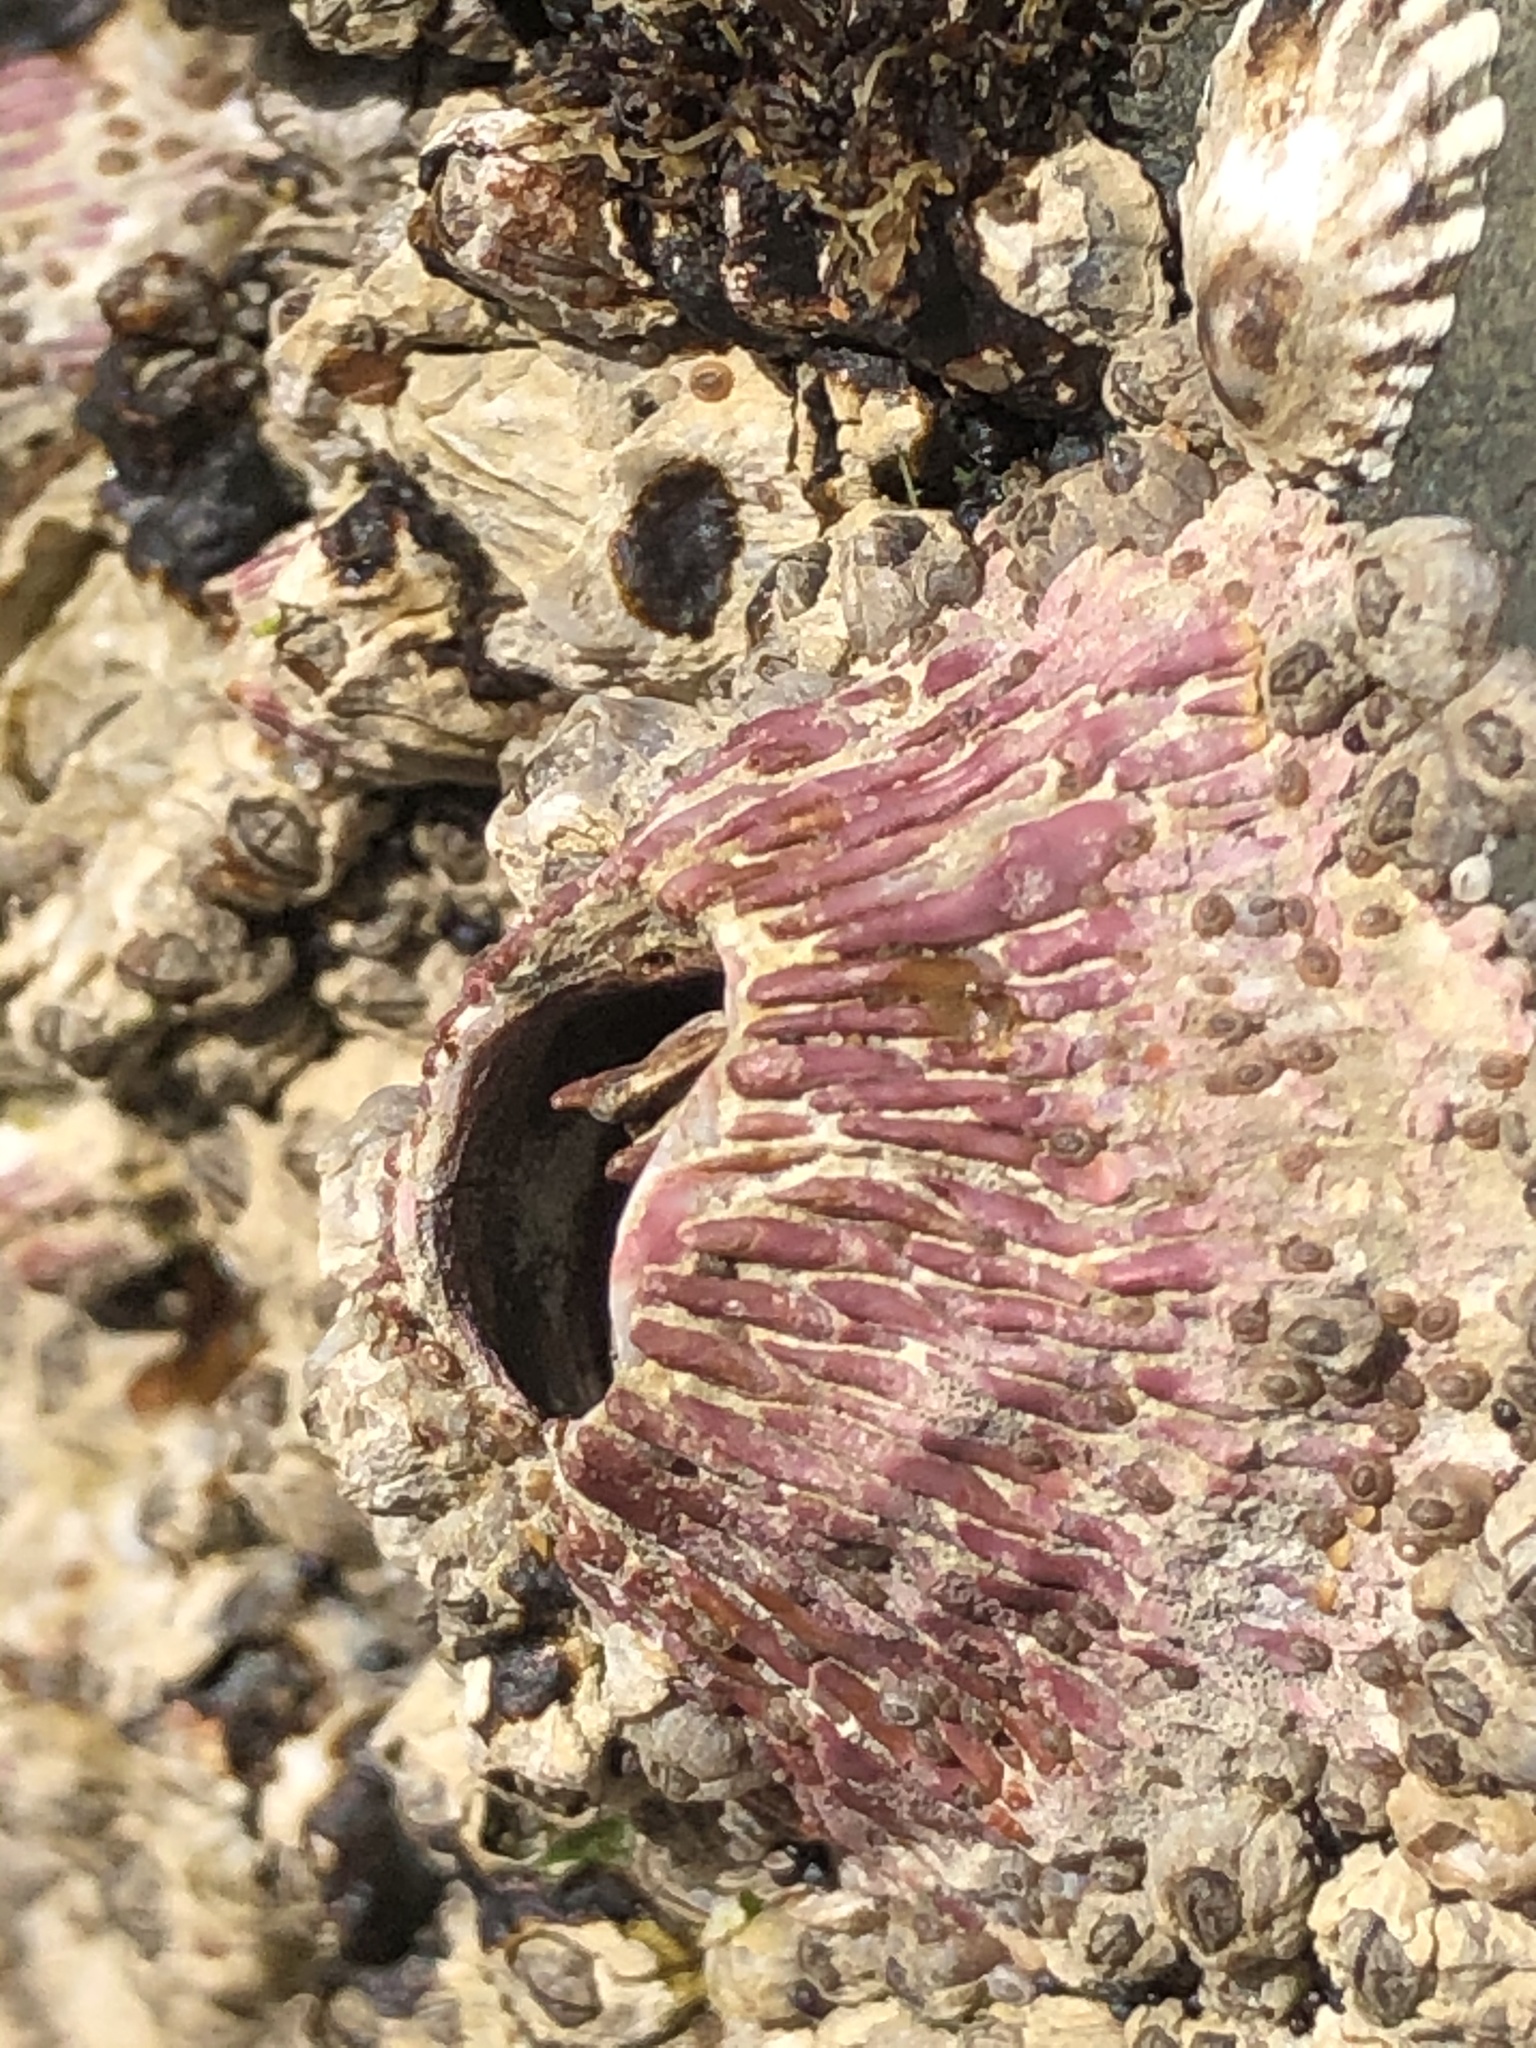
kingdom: Animalia
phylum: Arthropoda
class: Maxillopoda
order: Sessilia
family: Tetraclitidae
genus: Tetraclita
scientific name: Tetraclita rubescens
